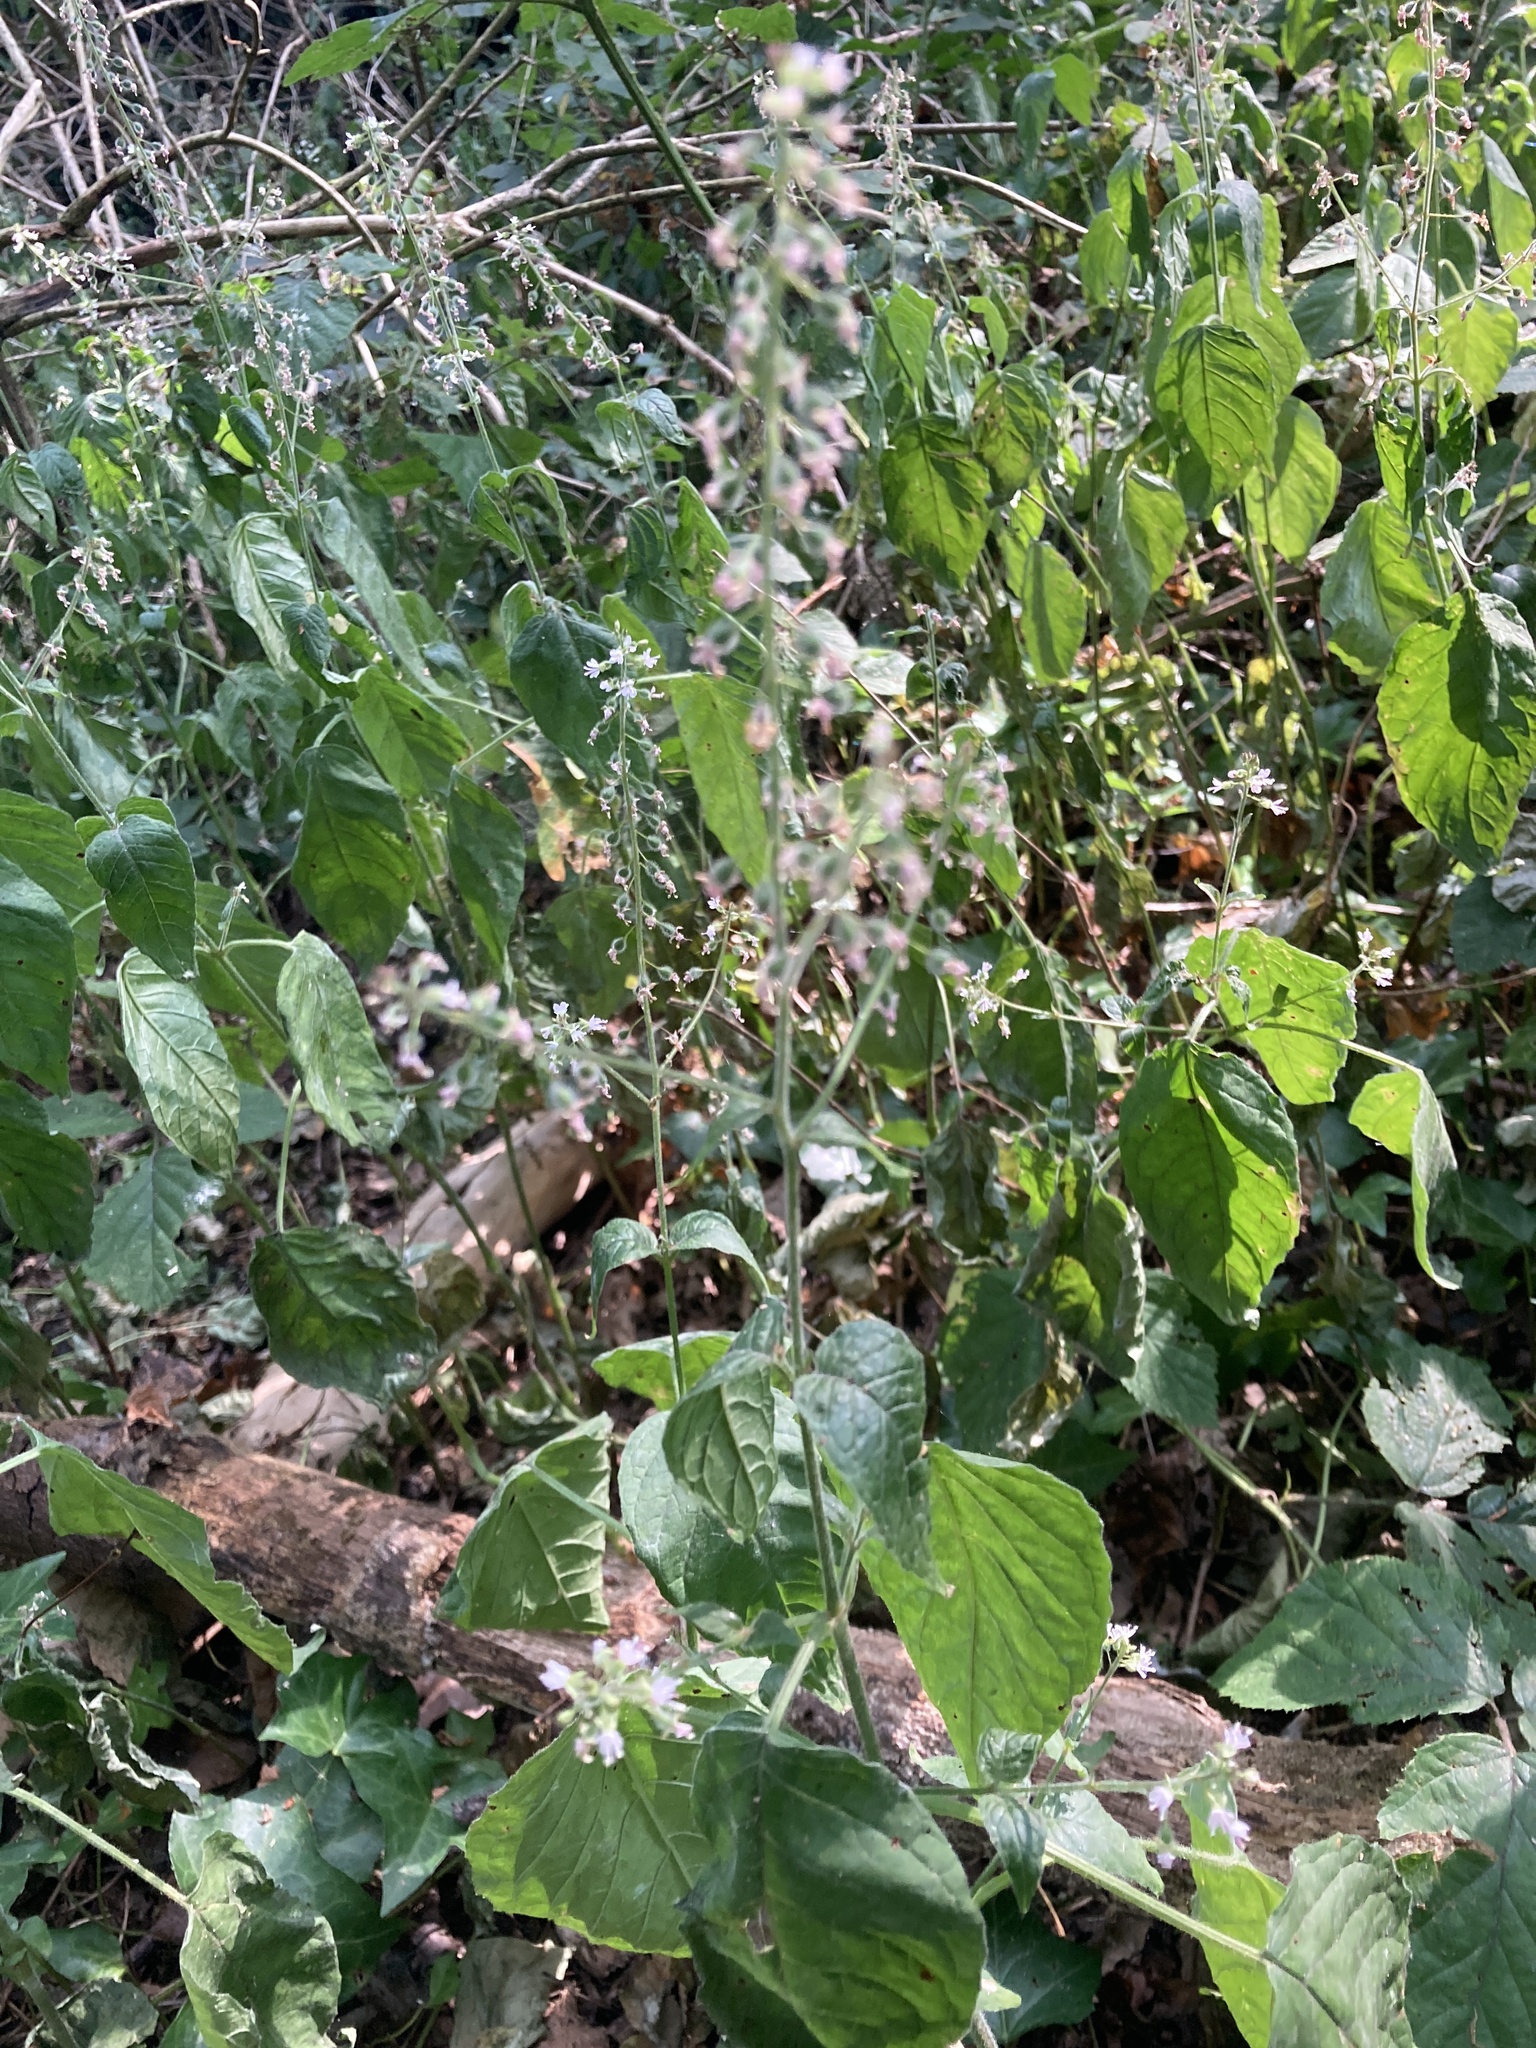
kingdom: Plantae
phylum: Tracheophyta
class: Magnoliopsida
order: Myrtales
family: Onagraceae
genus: Circaea
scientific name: Circaea lutetiana
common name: Enchanter's-nightshade
